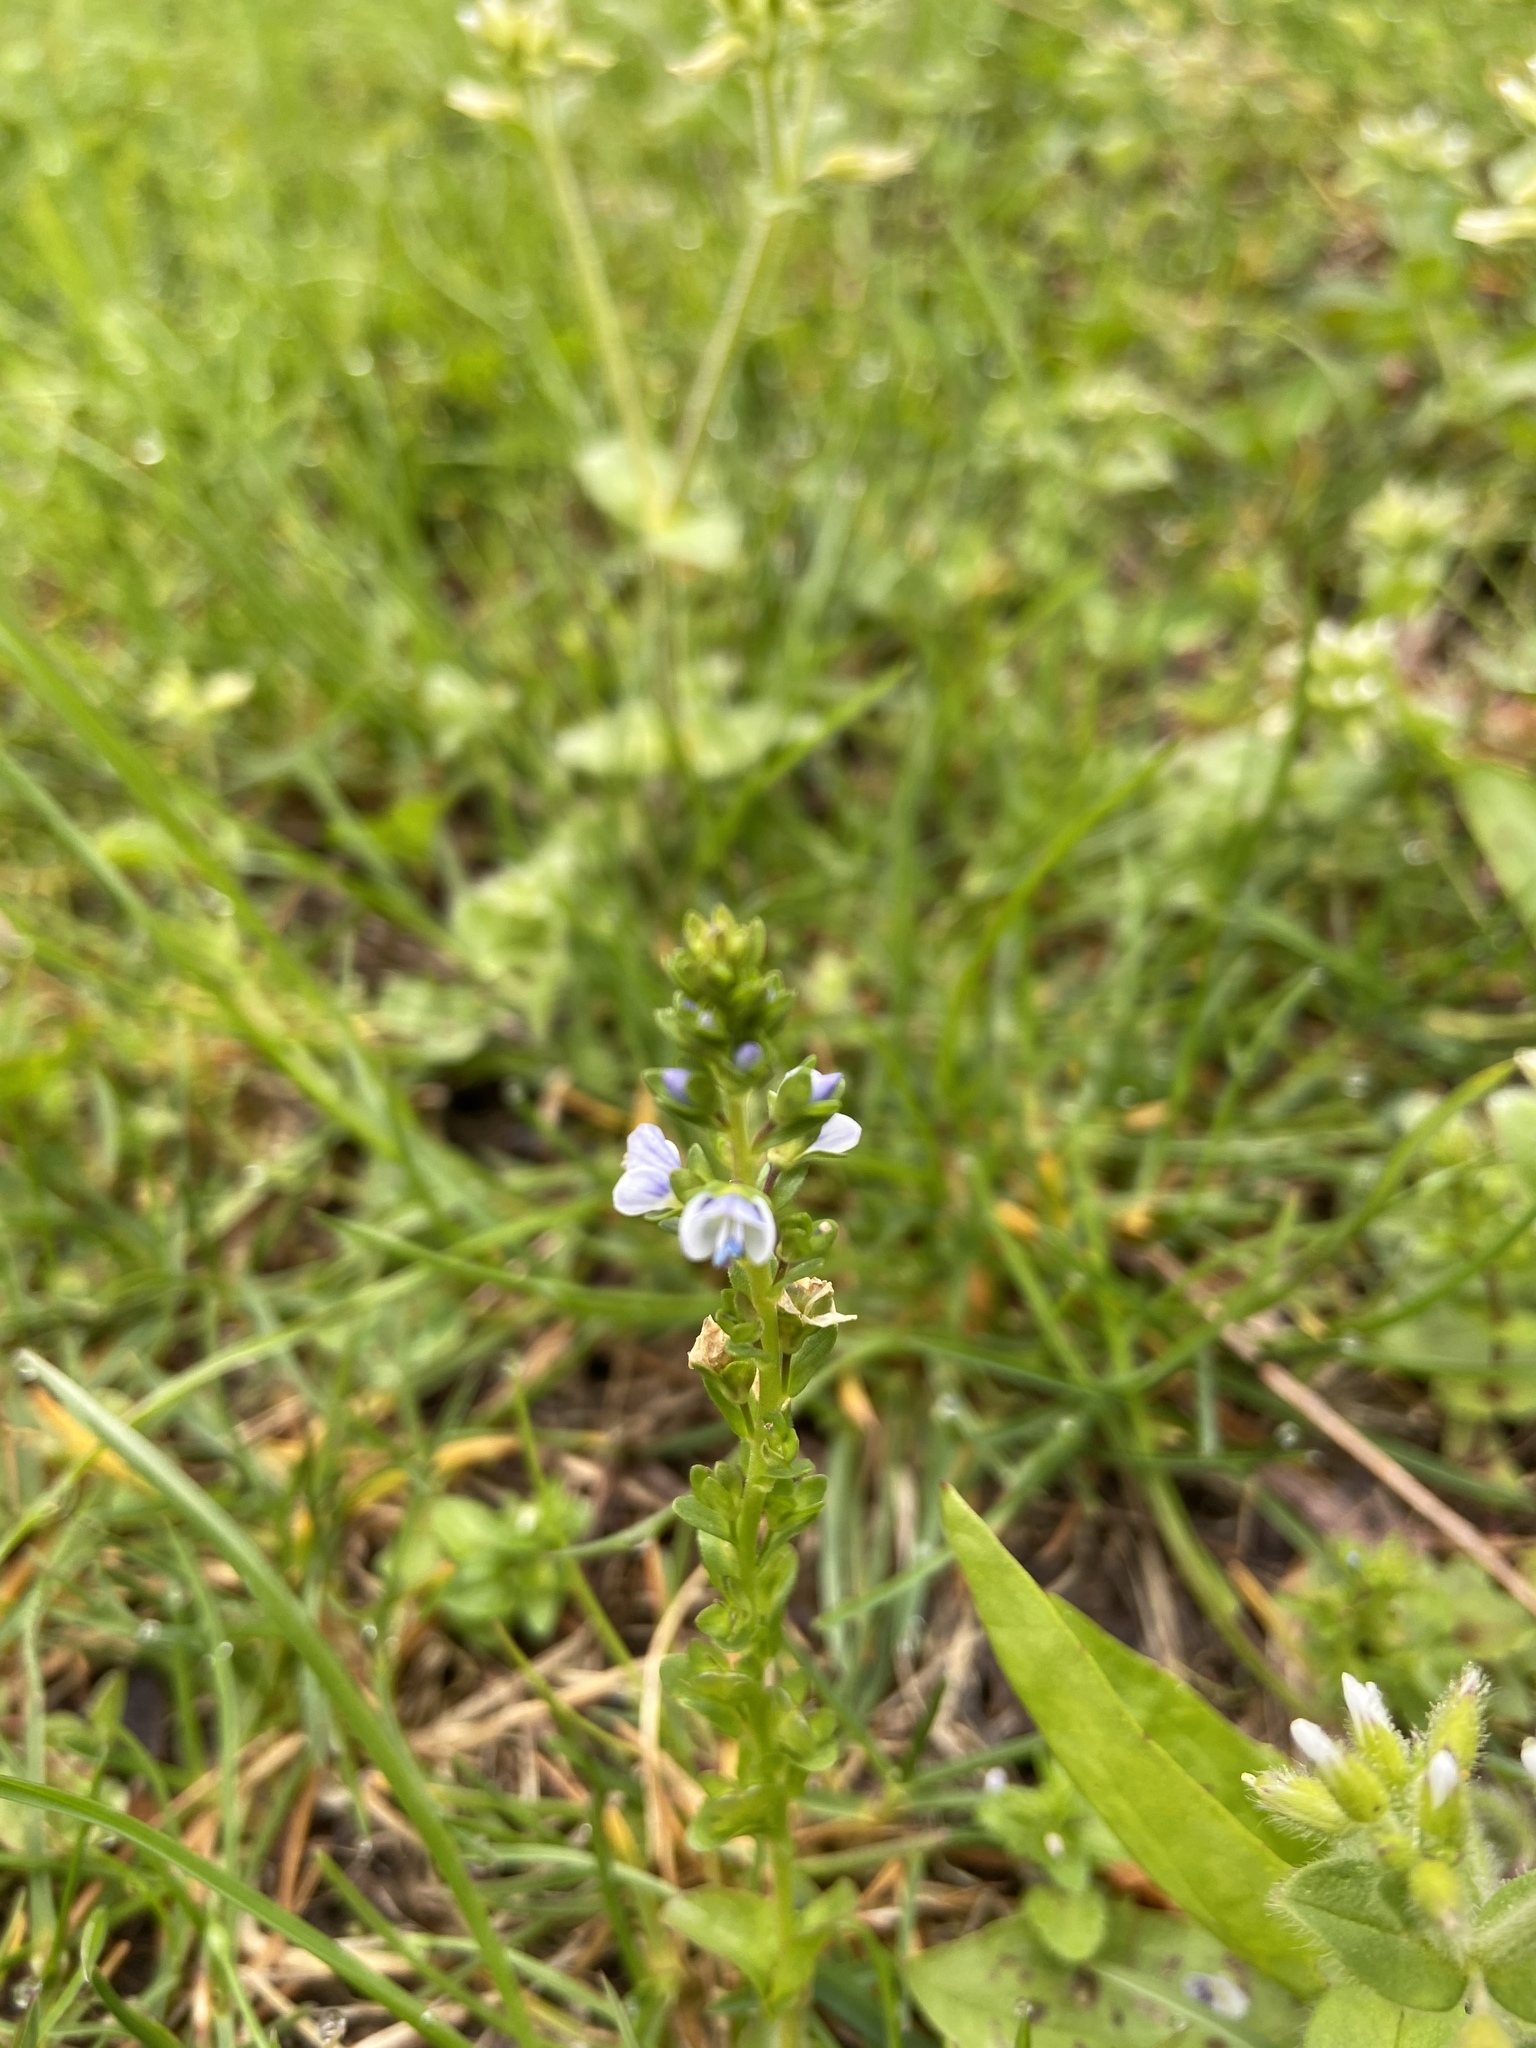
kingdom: Plantae
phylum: Tracheophyta
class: Magnoliopsida
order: Lamiales
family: Plantaginaceae
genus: Veronica
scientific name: Veronica serpyllifolia
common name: Thyme-leaved speedwell
